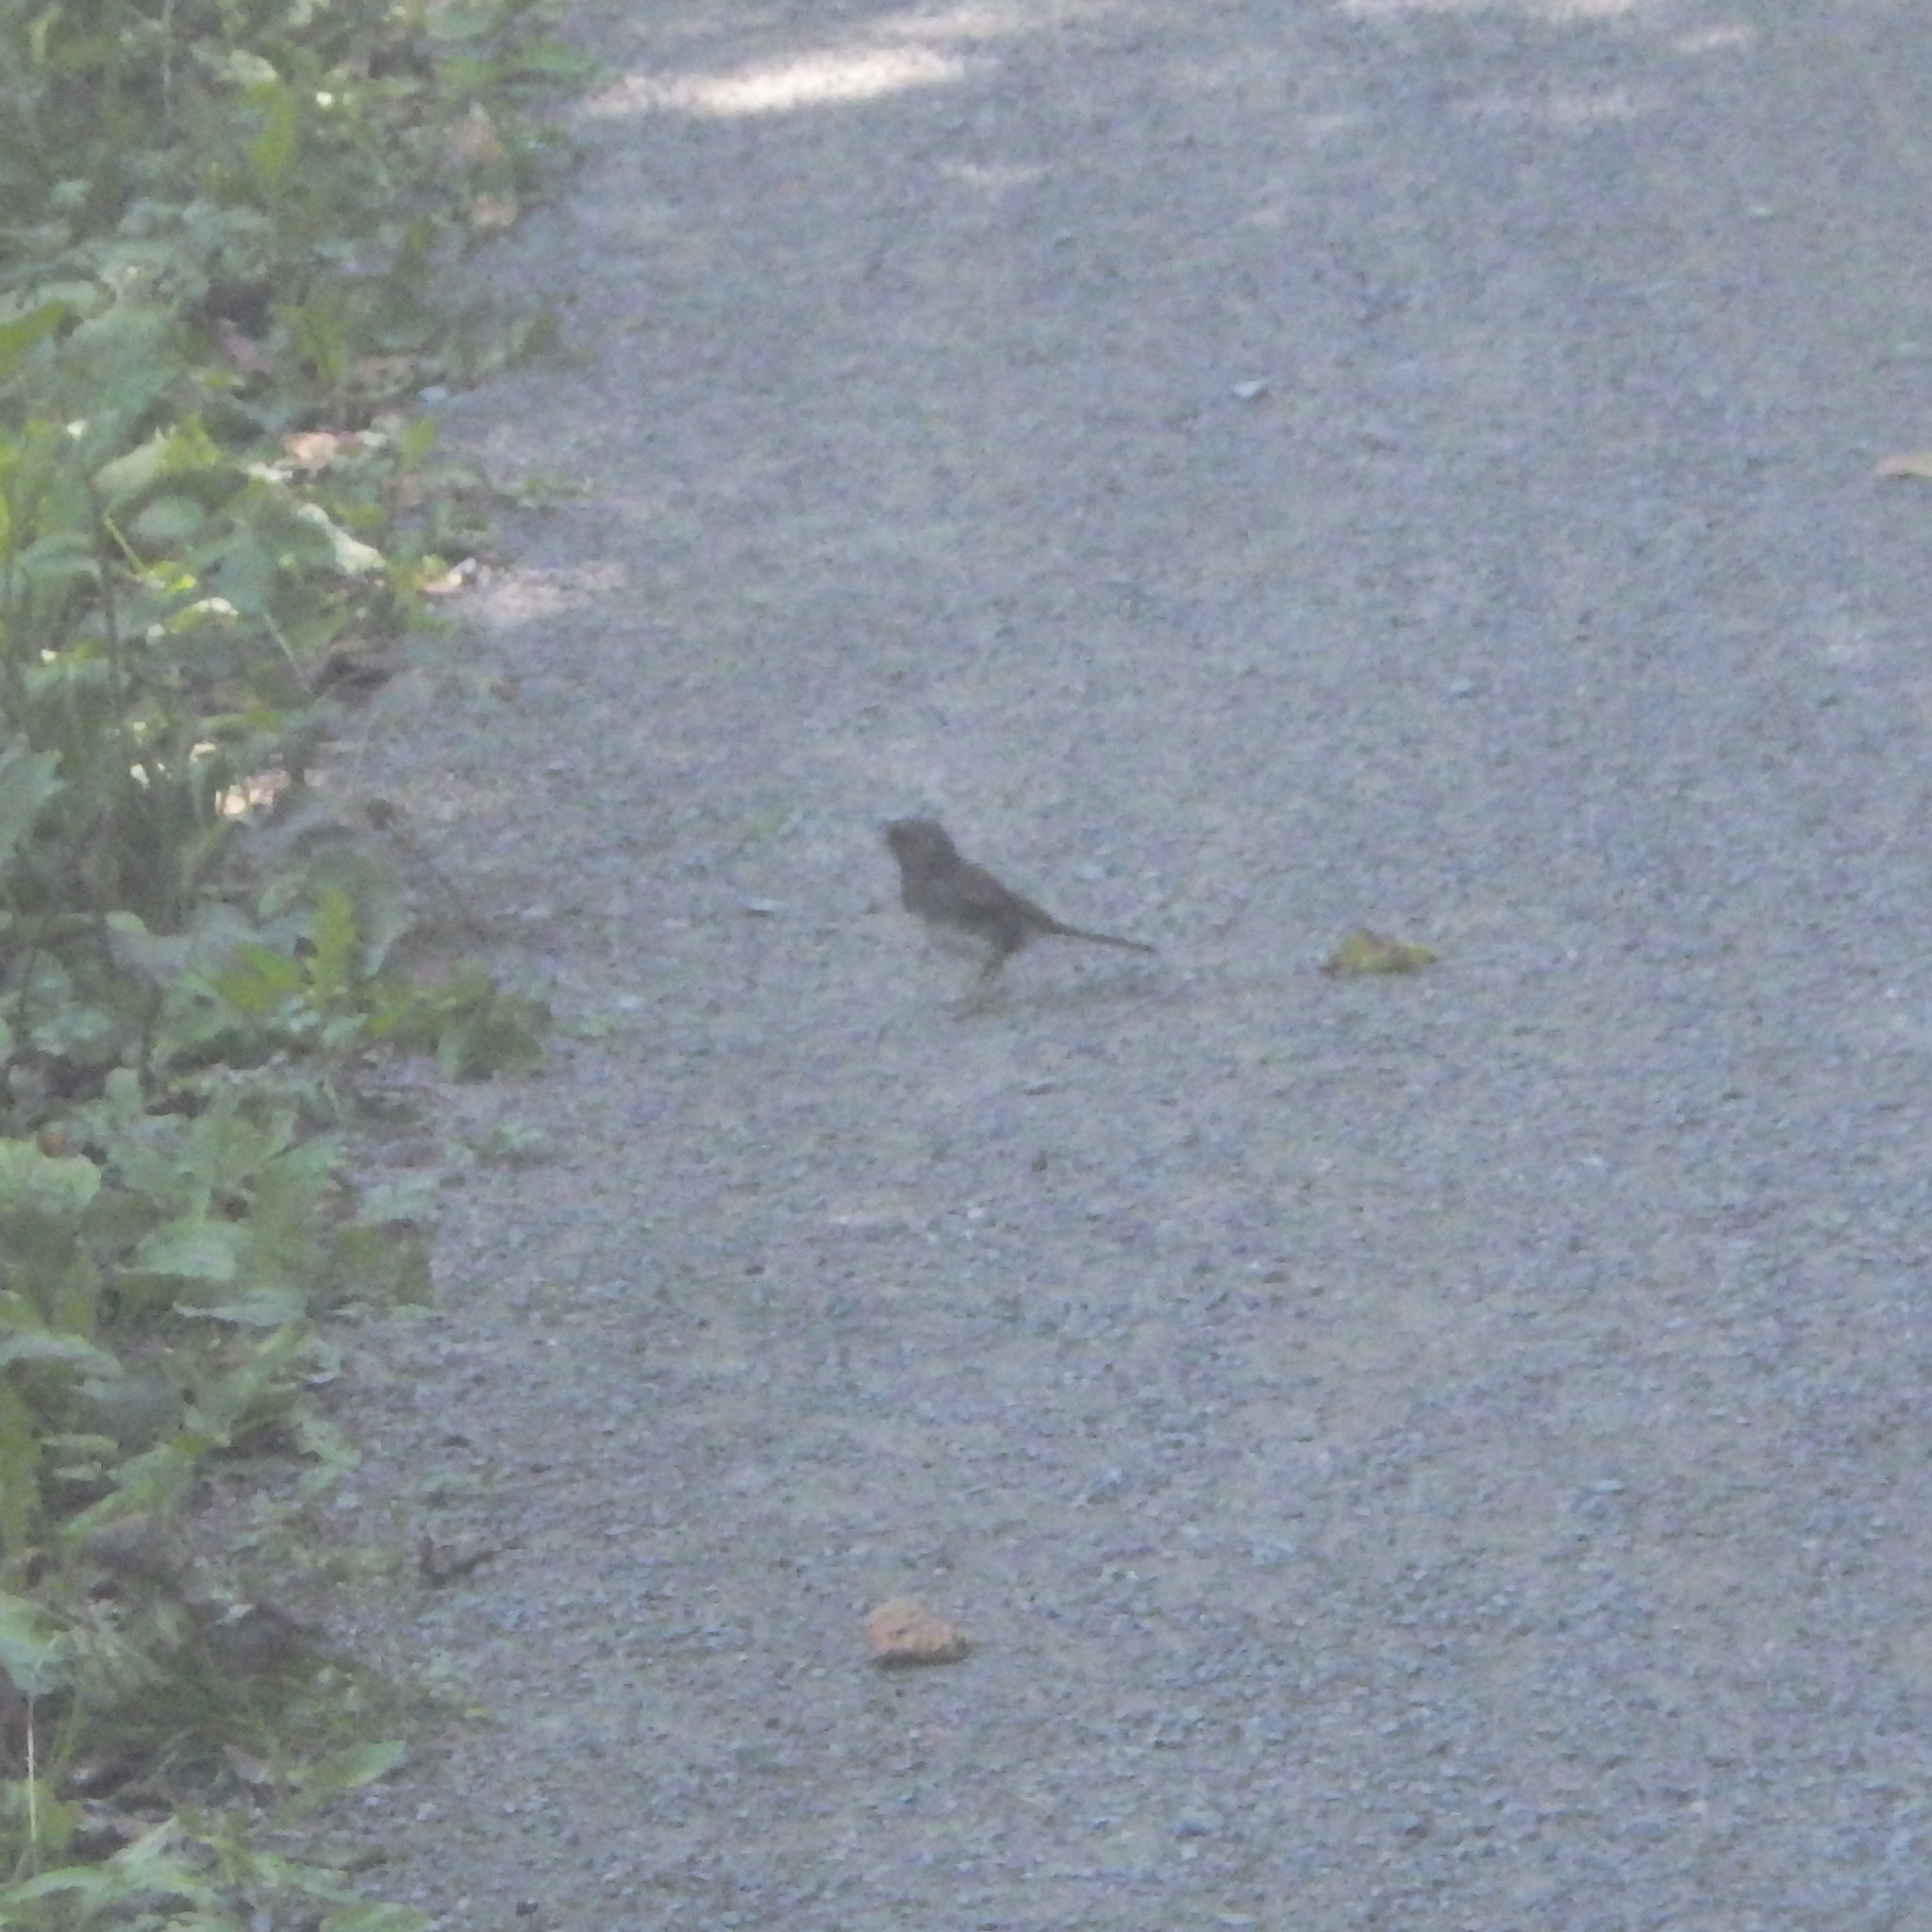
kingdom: Animalia
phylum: Chordata
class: Aves
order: Passeriformes
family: Passerellidae
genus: Junco
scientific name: Junco hyemalis
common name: Dark-eyed junco
